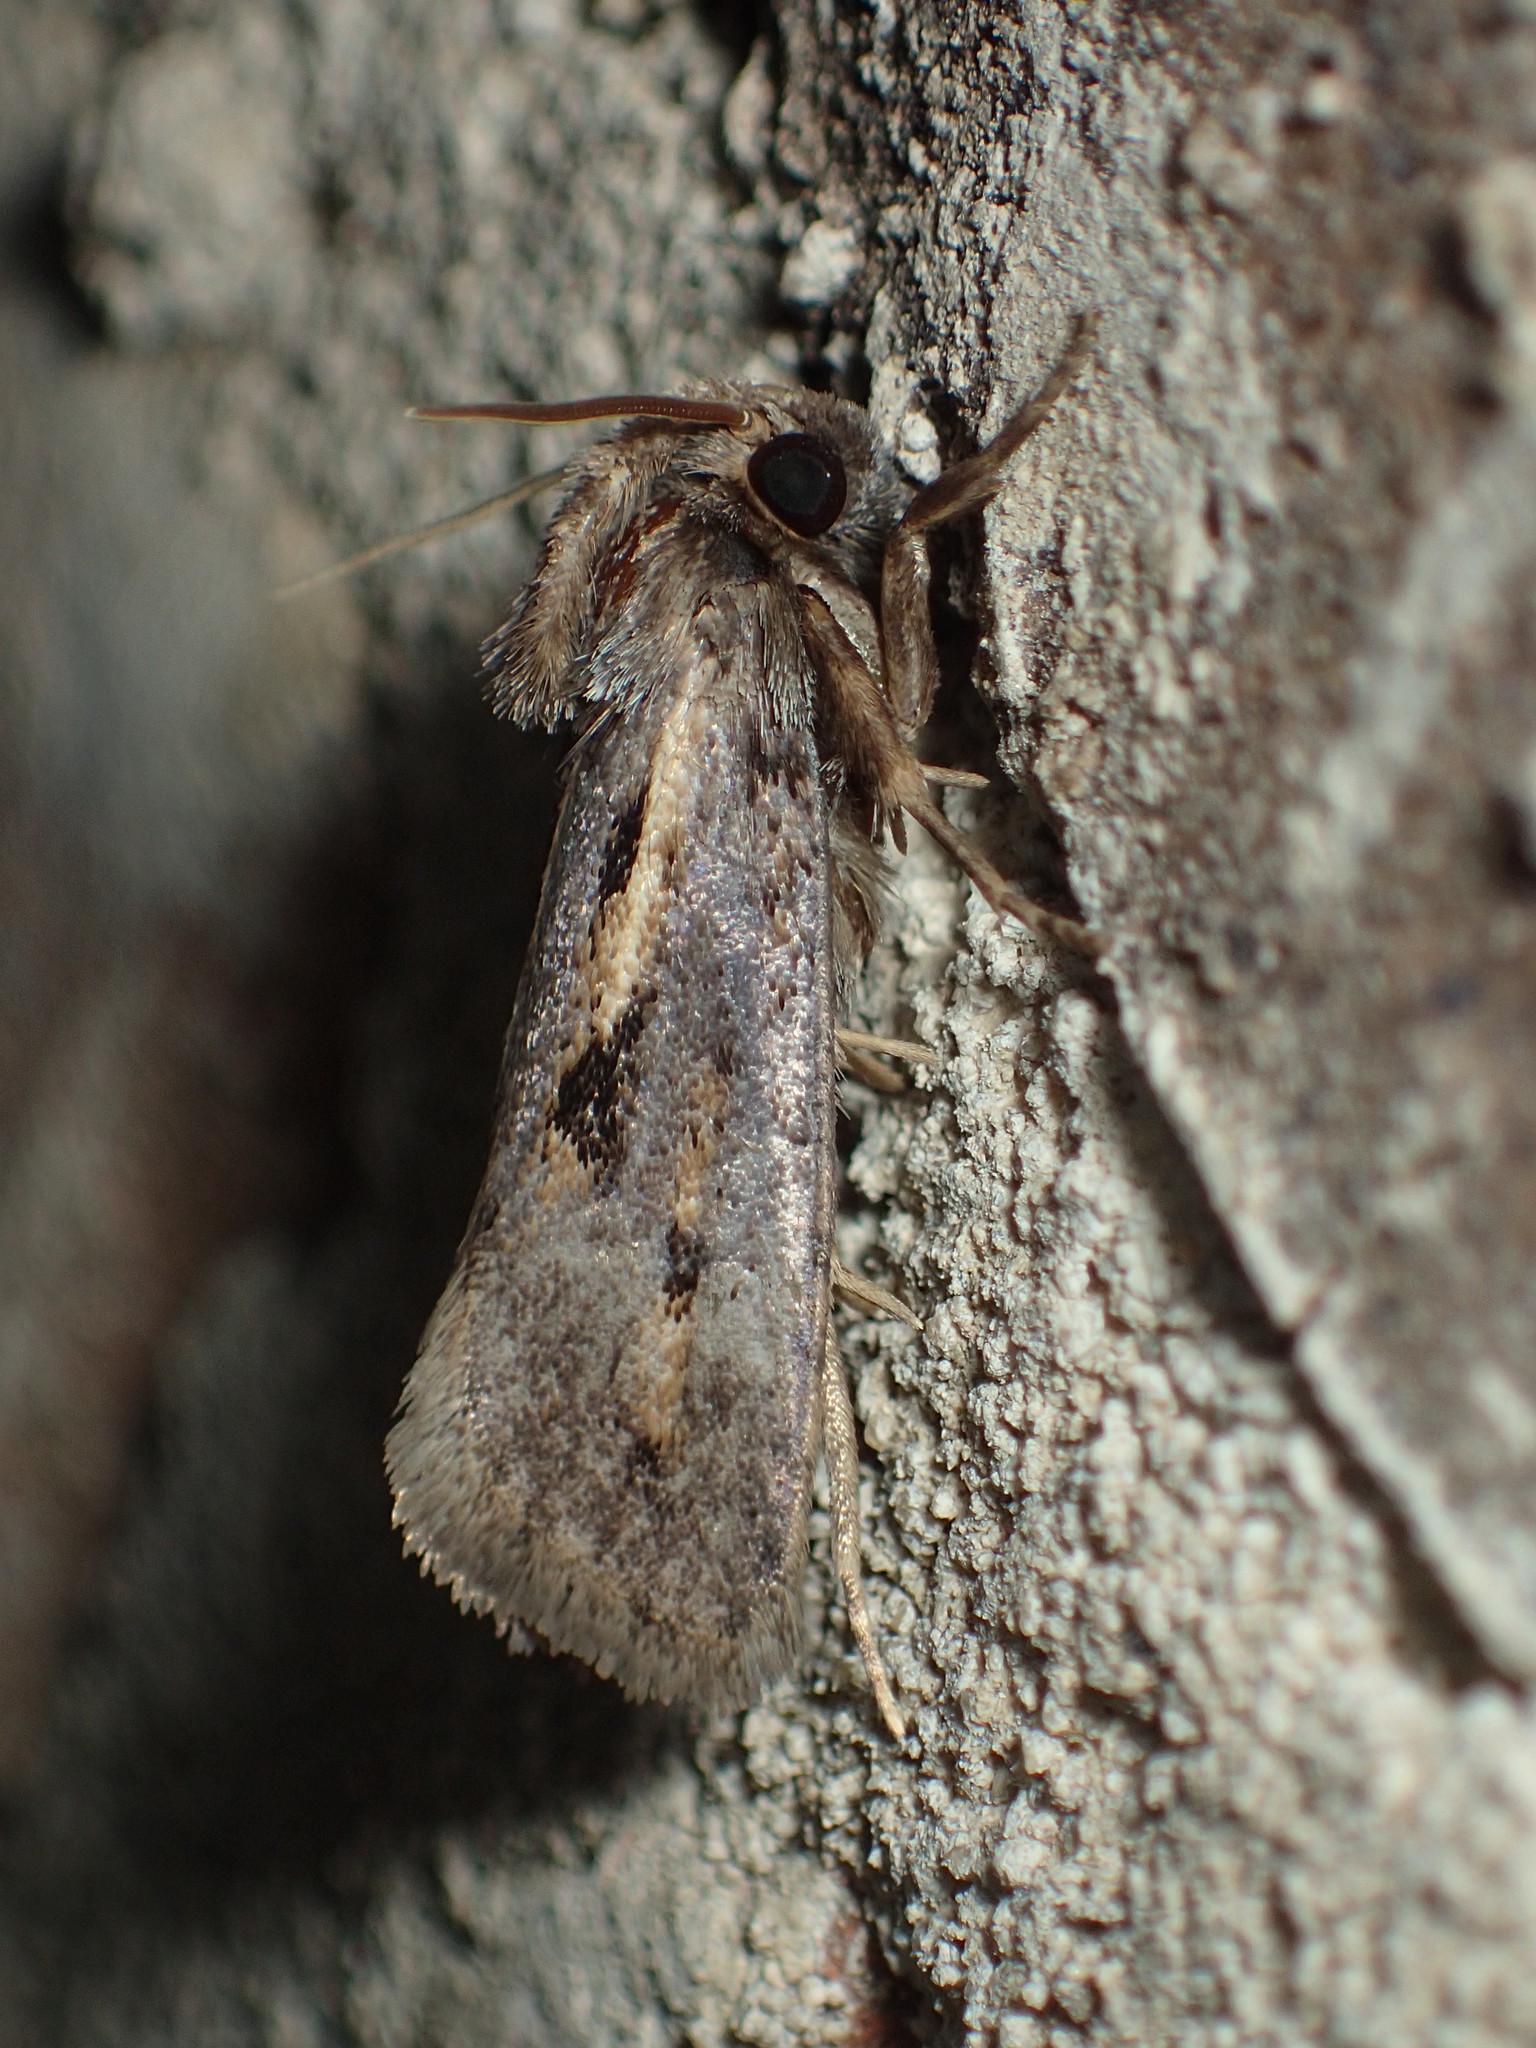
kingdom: Animalia
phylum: Arthropoda
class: Insecta
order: Lepidoptera
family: Tineidae
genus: Acrolophus
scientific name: Acrolophus popeanella
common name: Clemens' grass tubeworm moth
